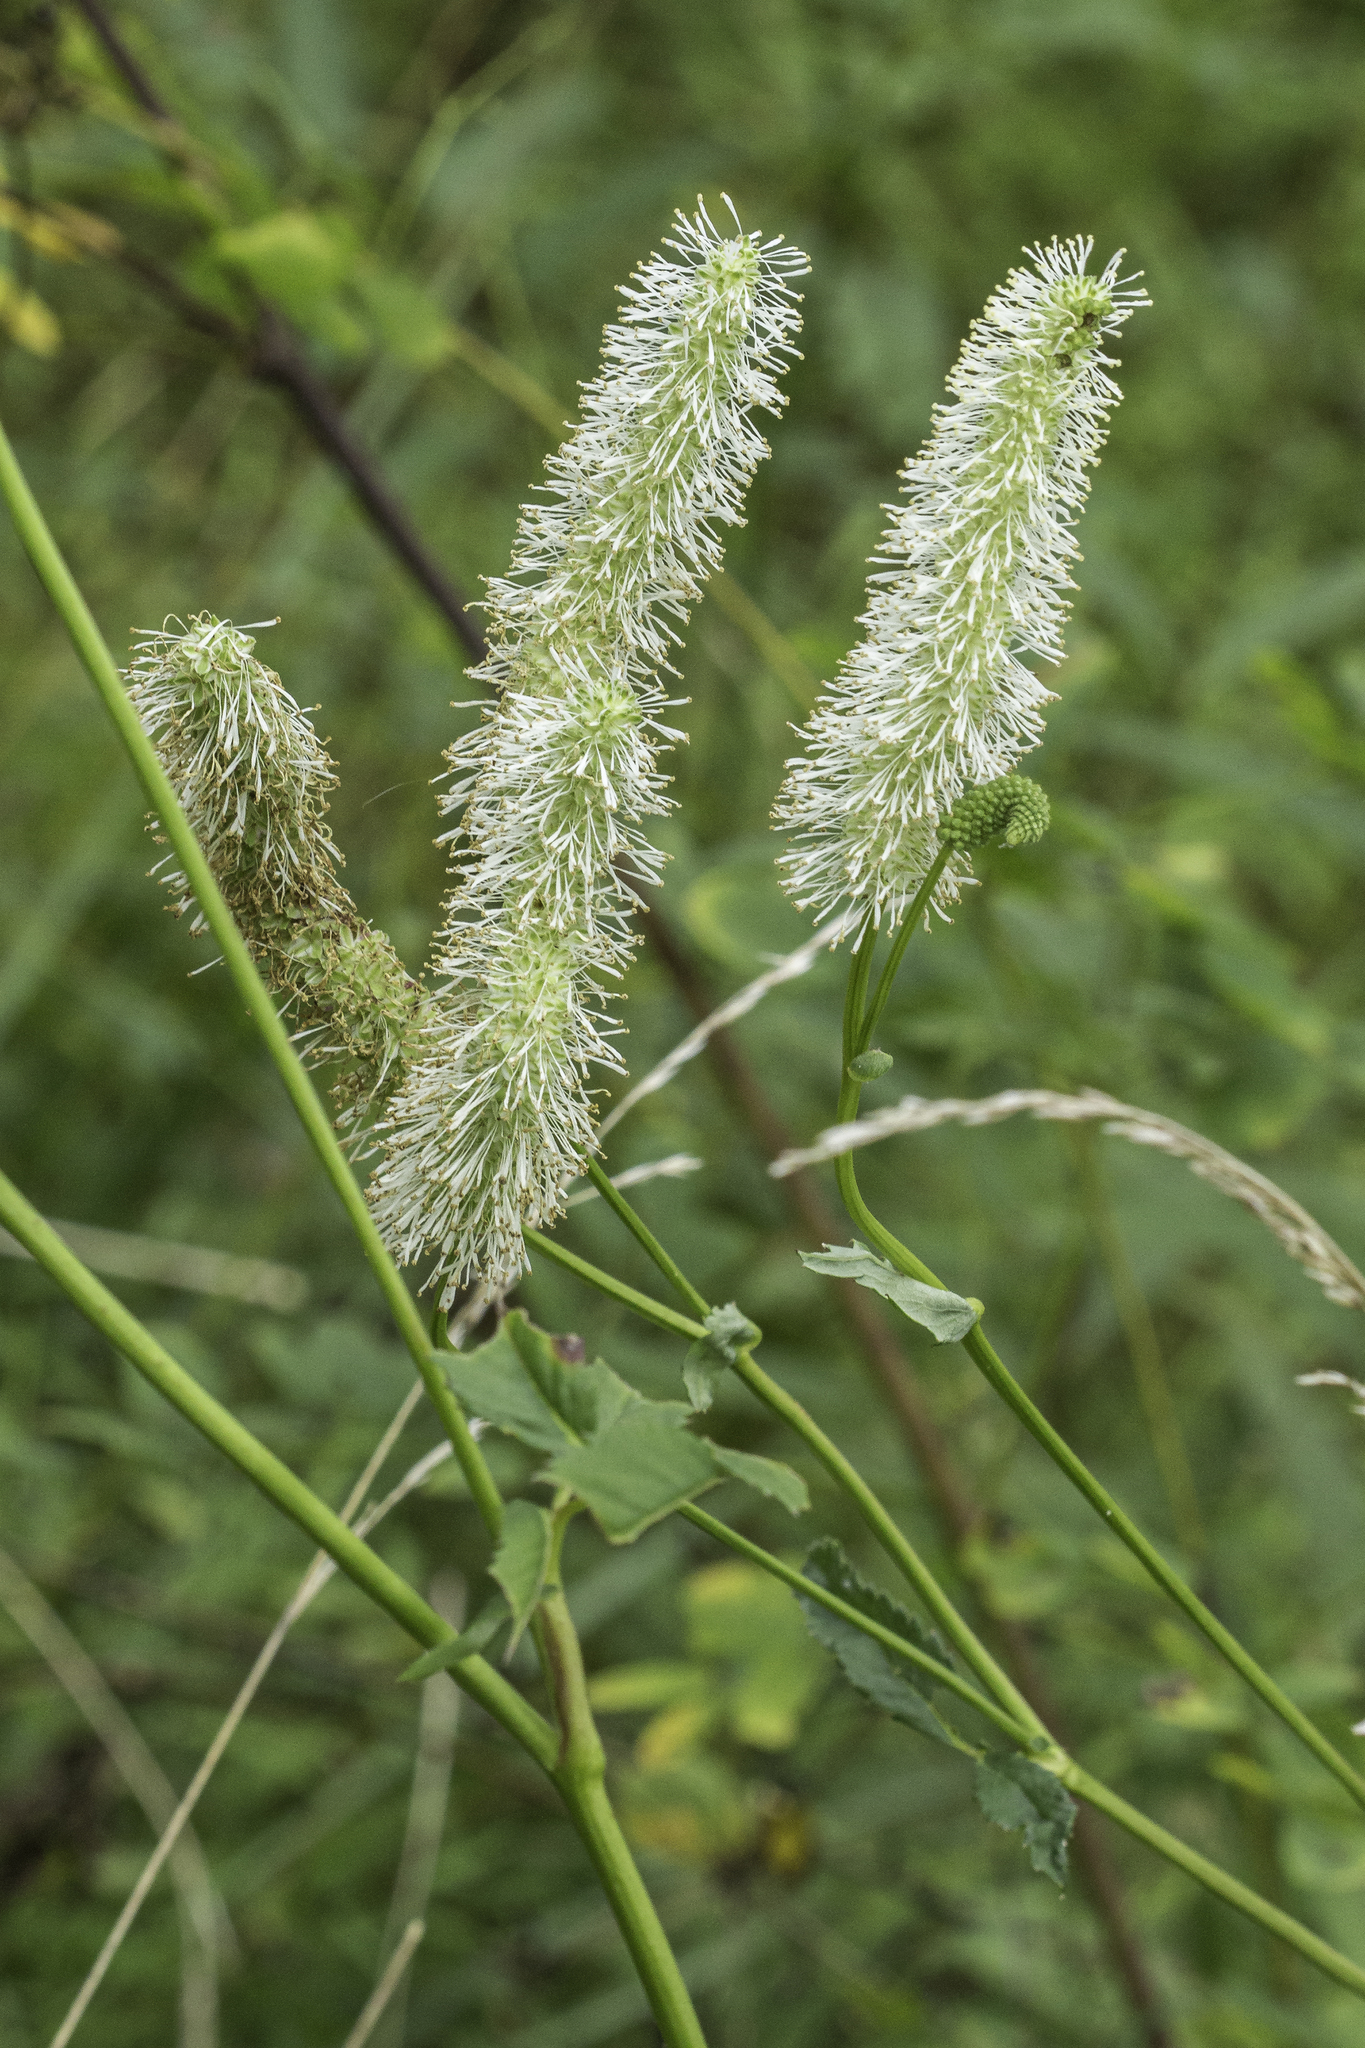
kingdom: Plantae
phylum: Tracheophyta
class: Magnoliopsida
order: Rosales
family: Rosaceae
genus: Sanguisorba
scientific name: Sanguisorba canadensis
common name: White burnet
